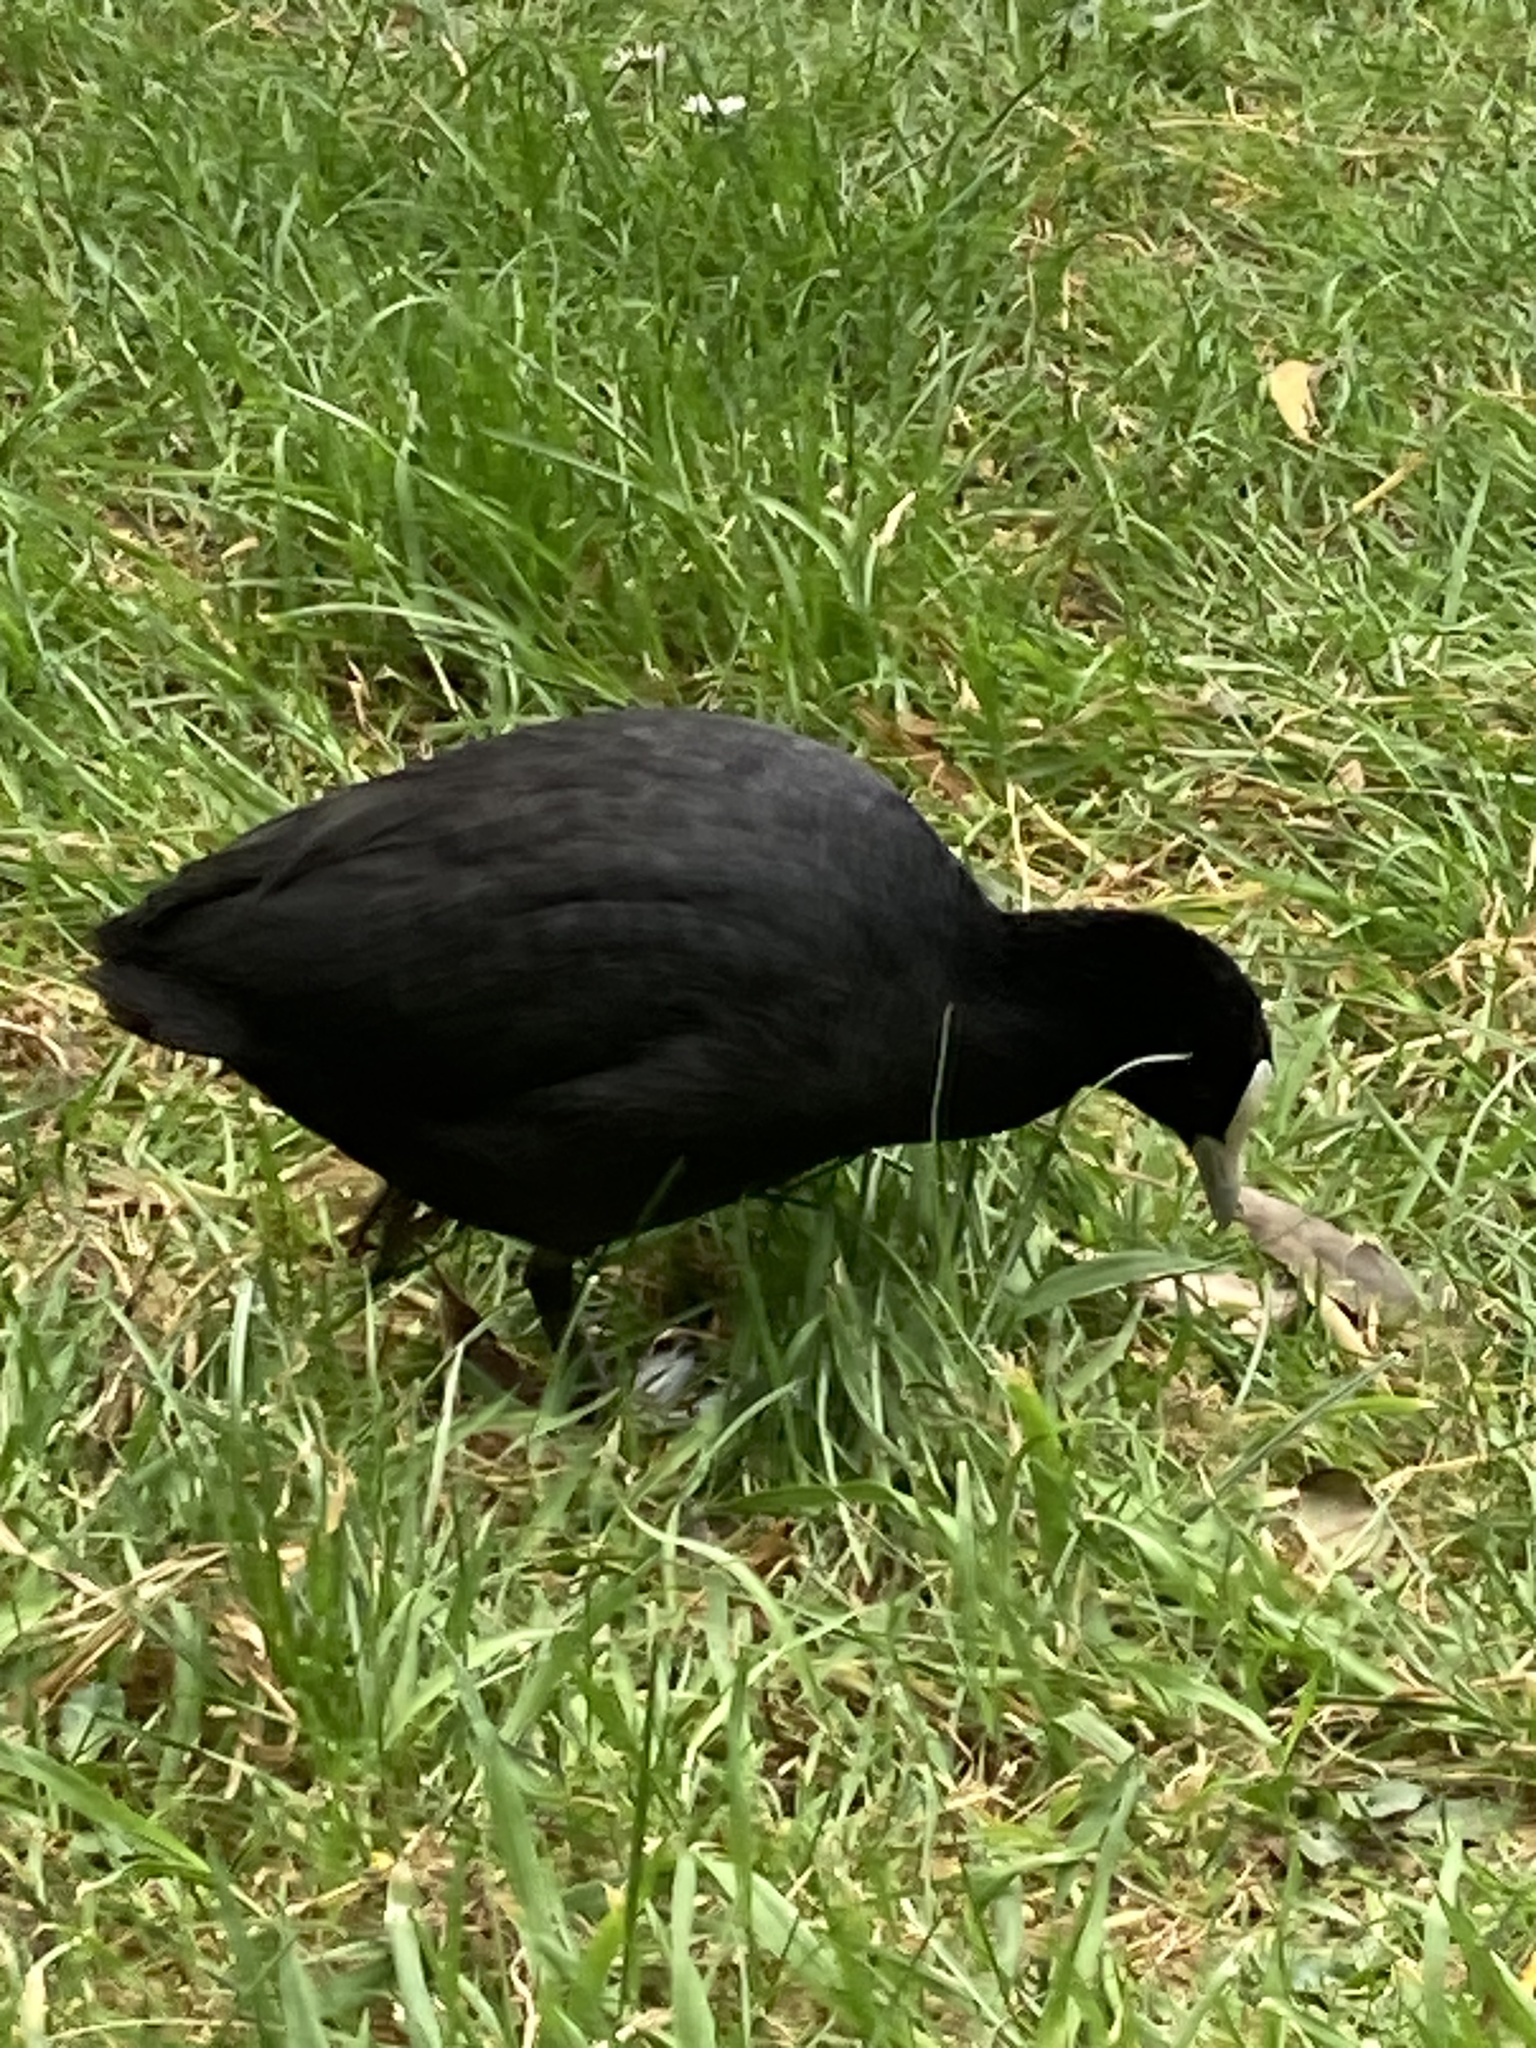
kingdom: Animalia
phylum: Chordata
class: Aves
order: Gruiformes
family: Rallidae
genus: Fulica
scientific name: Fulica atra
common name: Eurasian coot
